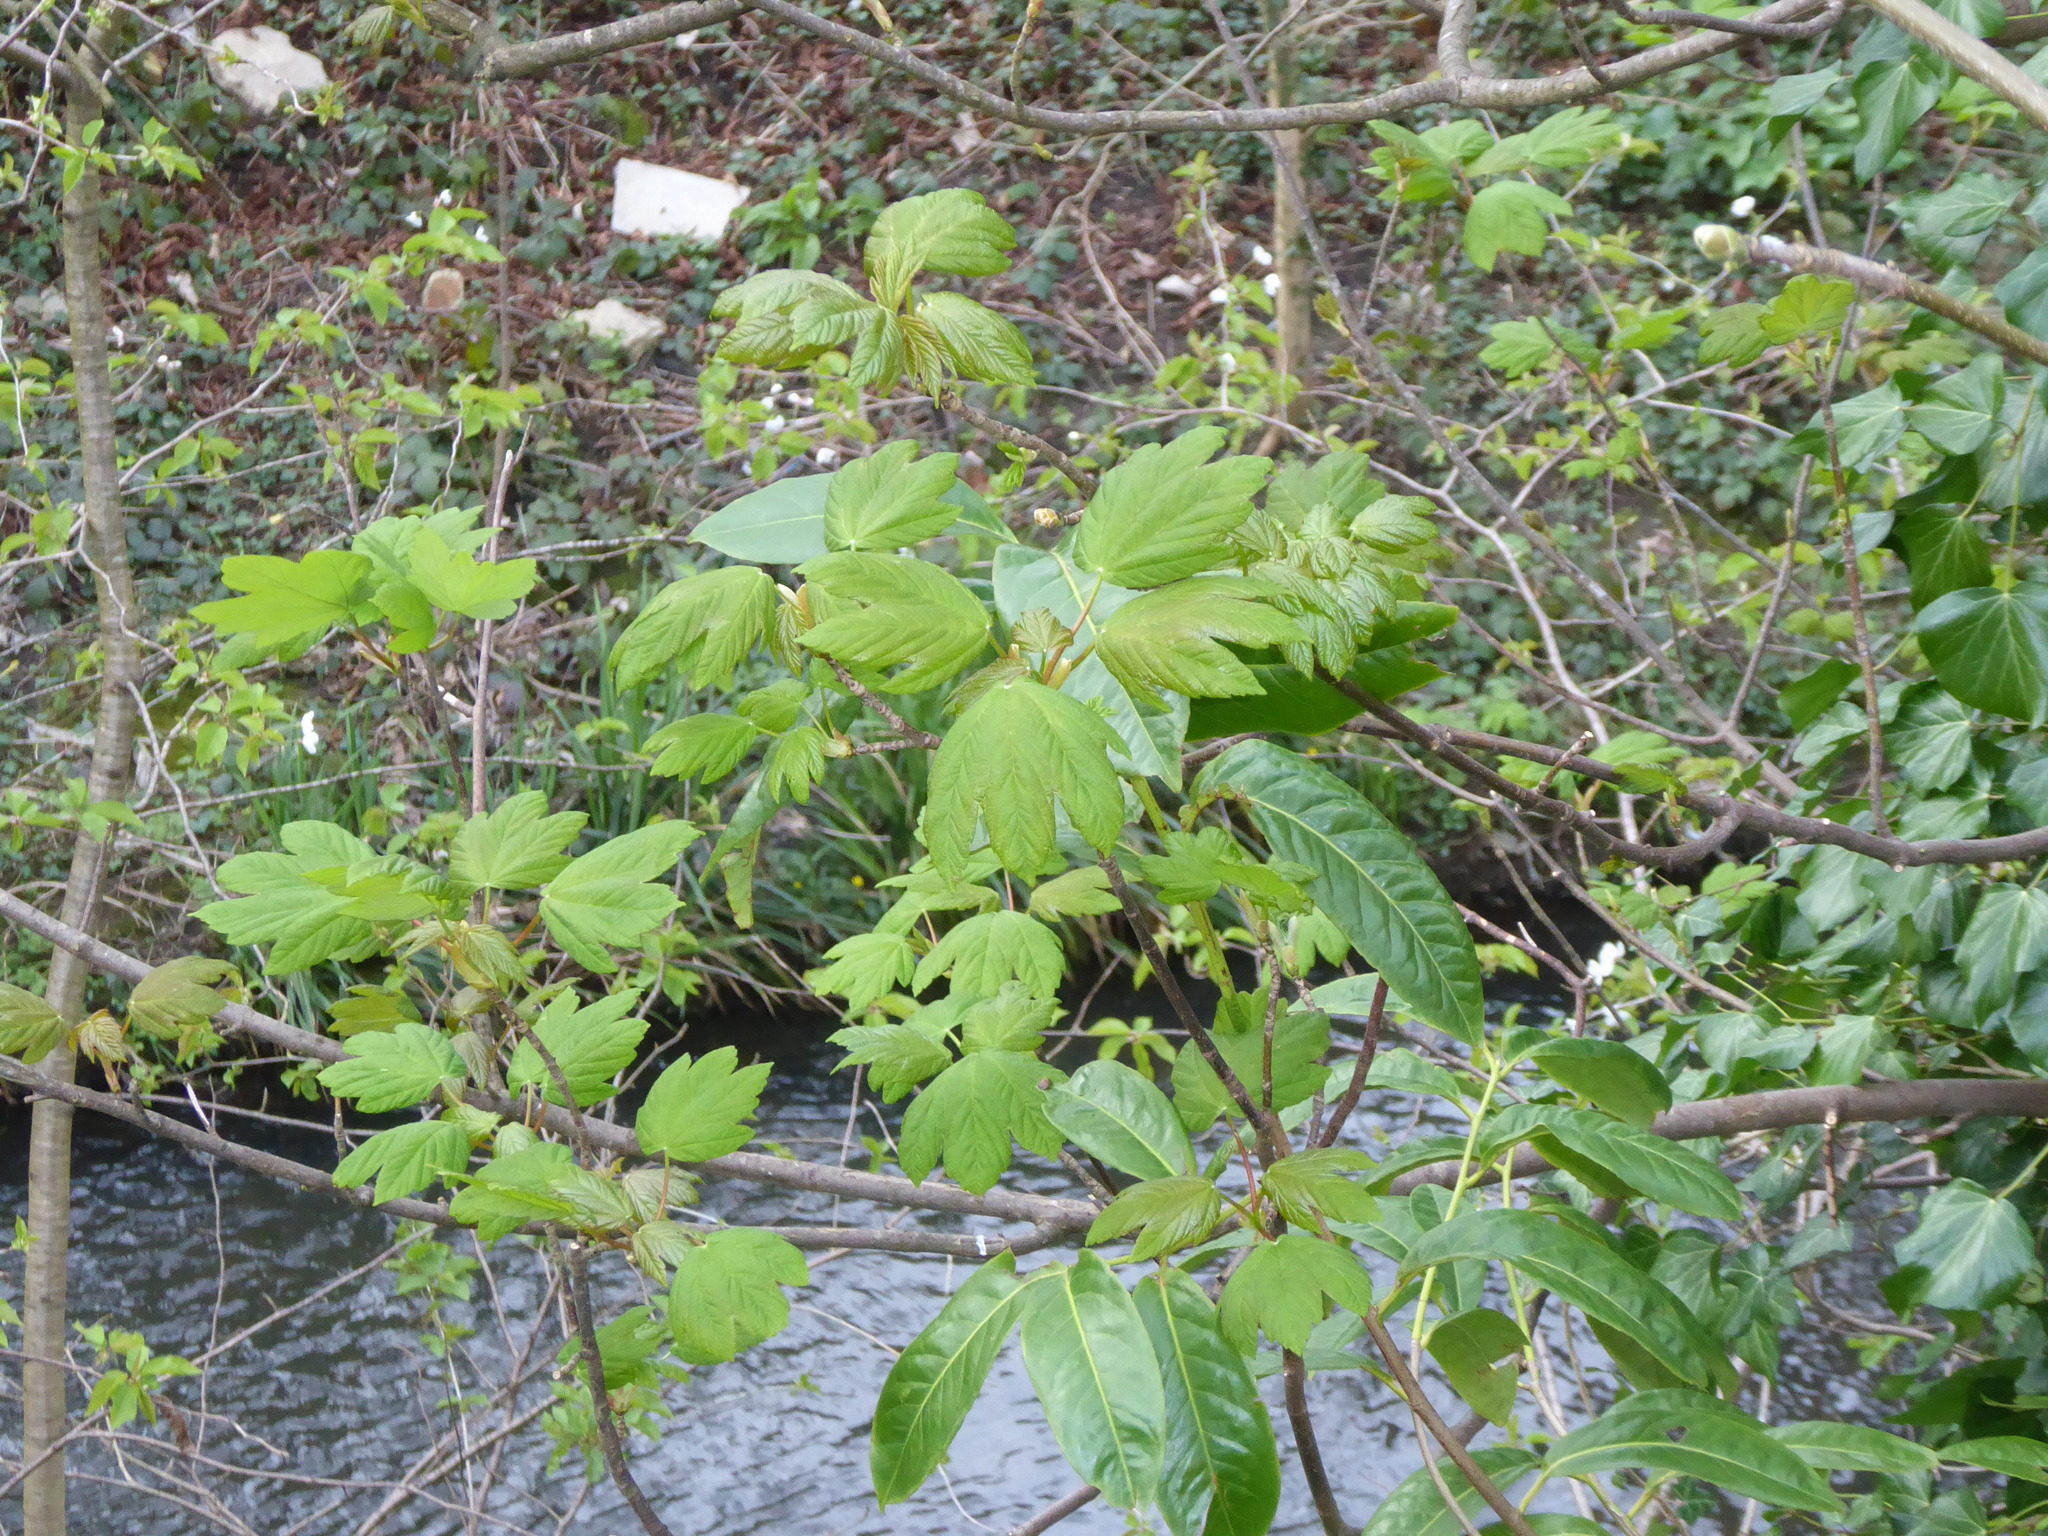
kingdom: Plantae
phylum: Tracheophyta
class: Magnoliopsida
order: Sapindales
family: Sapindaceae
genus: Acer
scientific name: Acer pseudoplatanus
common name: Sycamore
